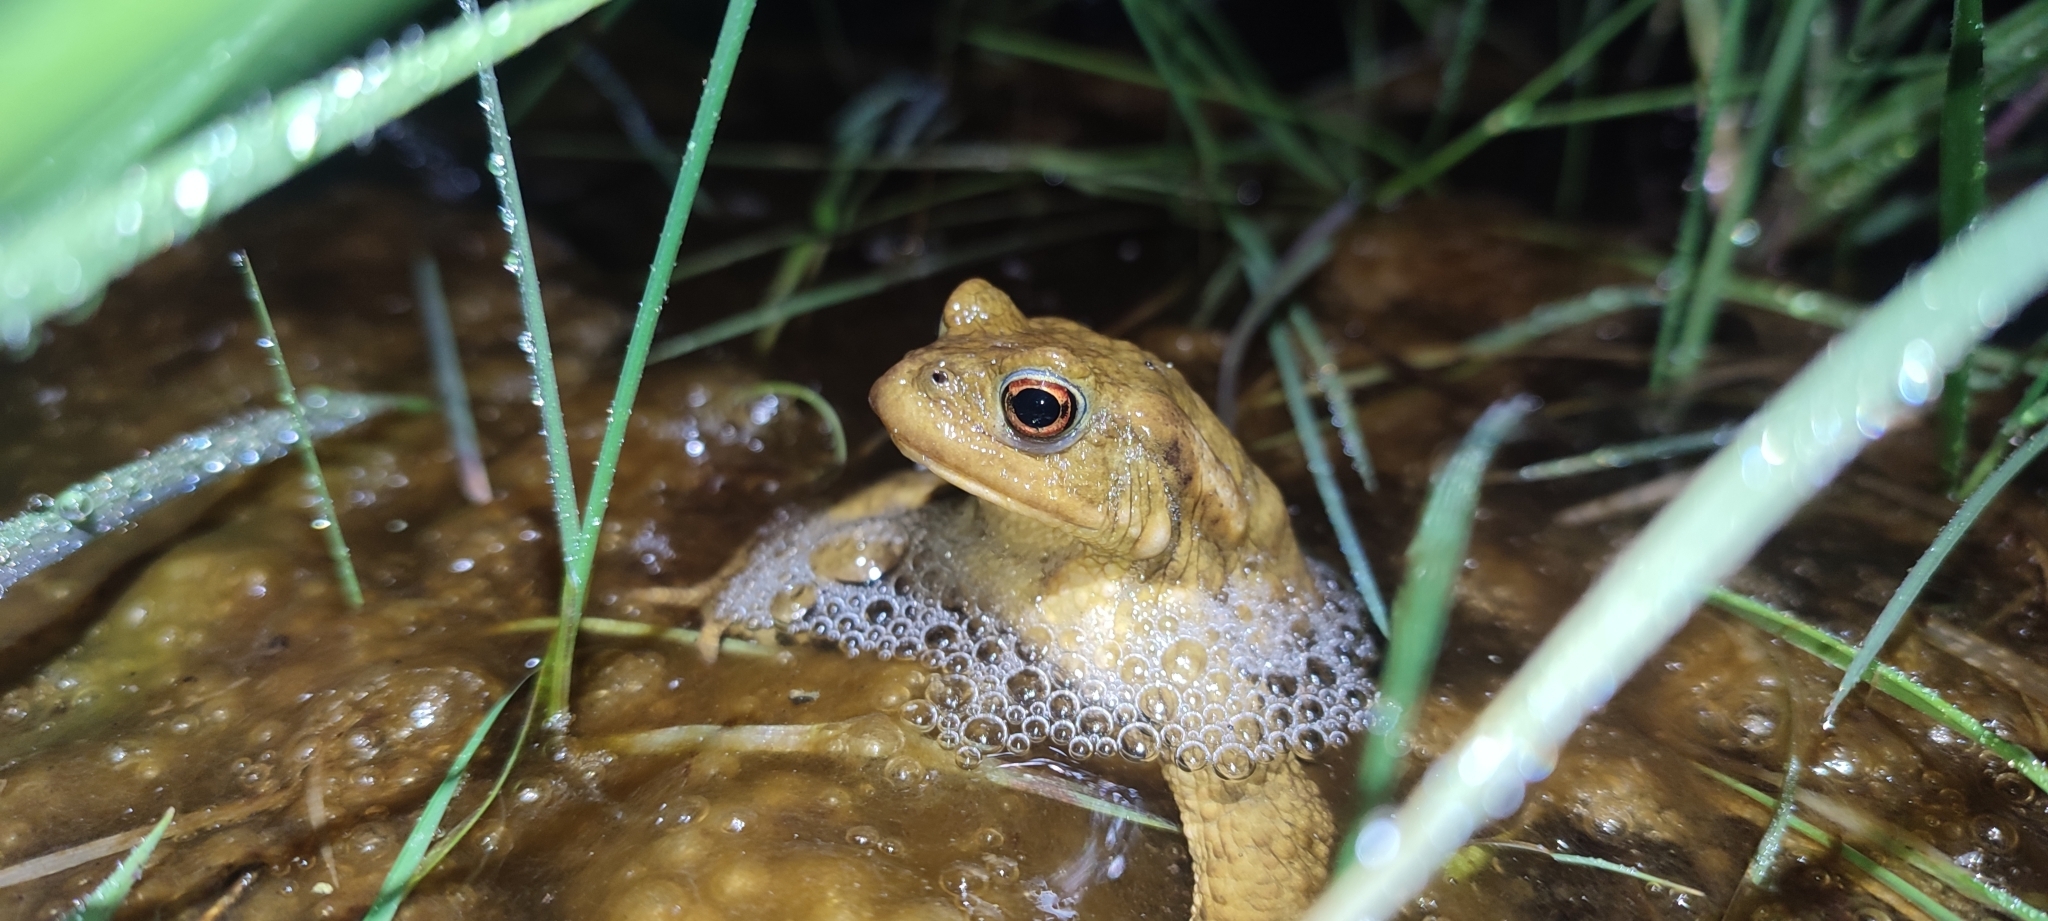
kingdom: Animalia
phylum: Chordata
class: Amphibia
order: Anura
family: Bufonidae
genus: Bufo
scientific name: Bufo spinosus
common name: Western common toad
